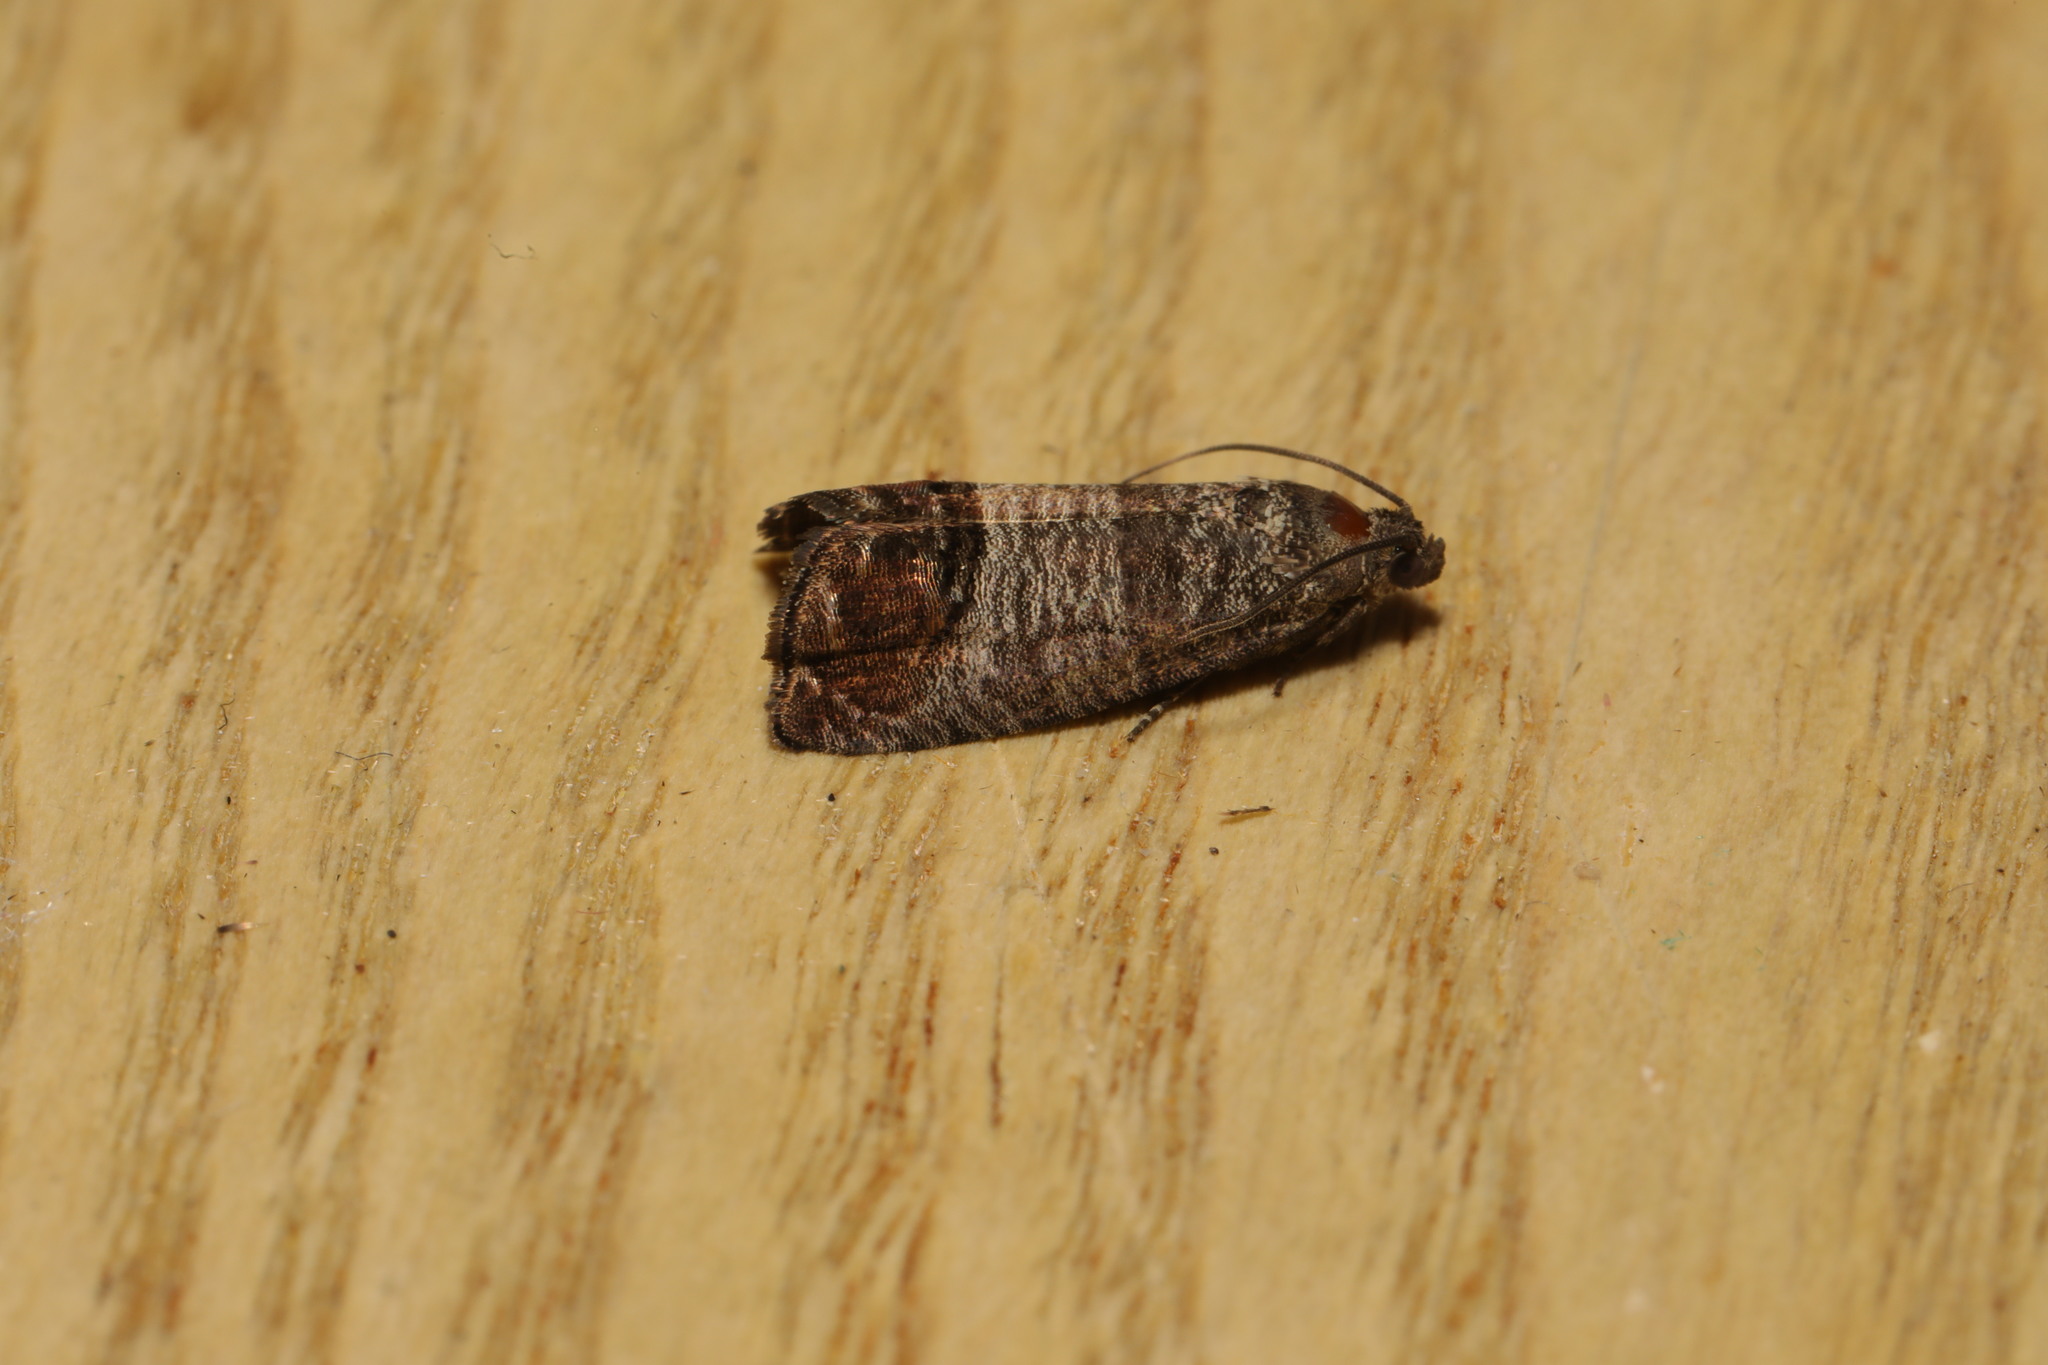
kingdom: Animalia
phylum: Arthropoda
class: Insecta
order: Lepidoptera
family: Tortricidae
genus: Cydia
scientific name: Cydia pomonella
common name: Codling moth
